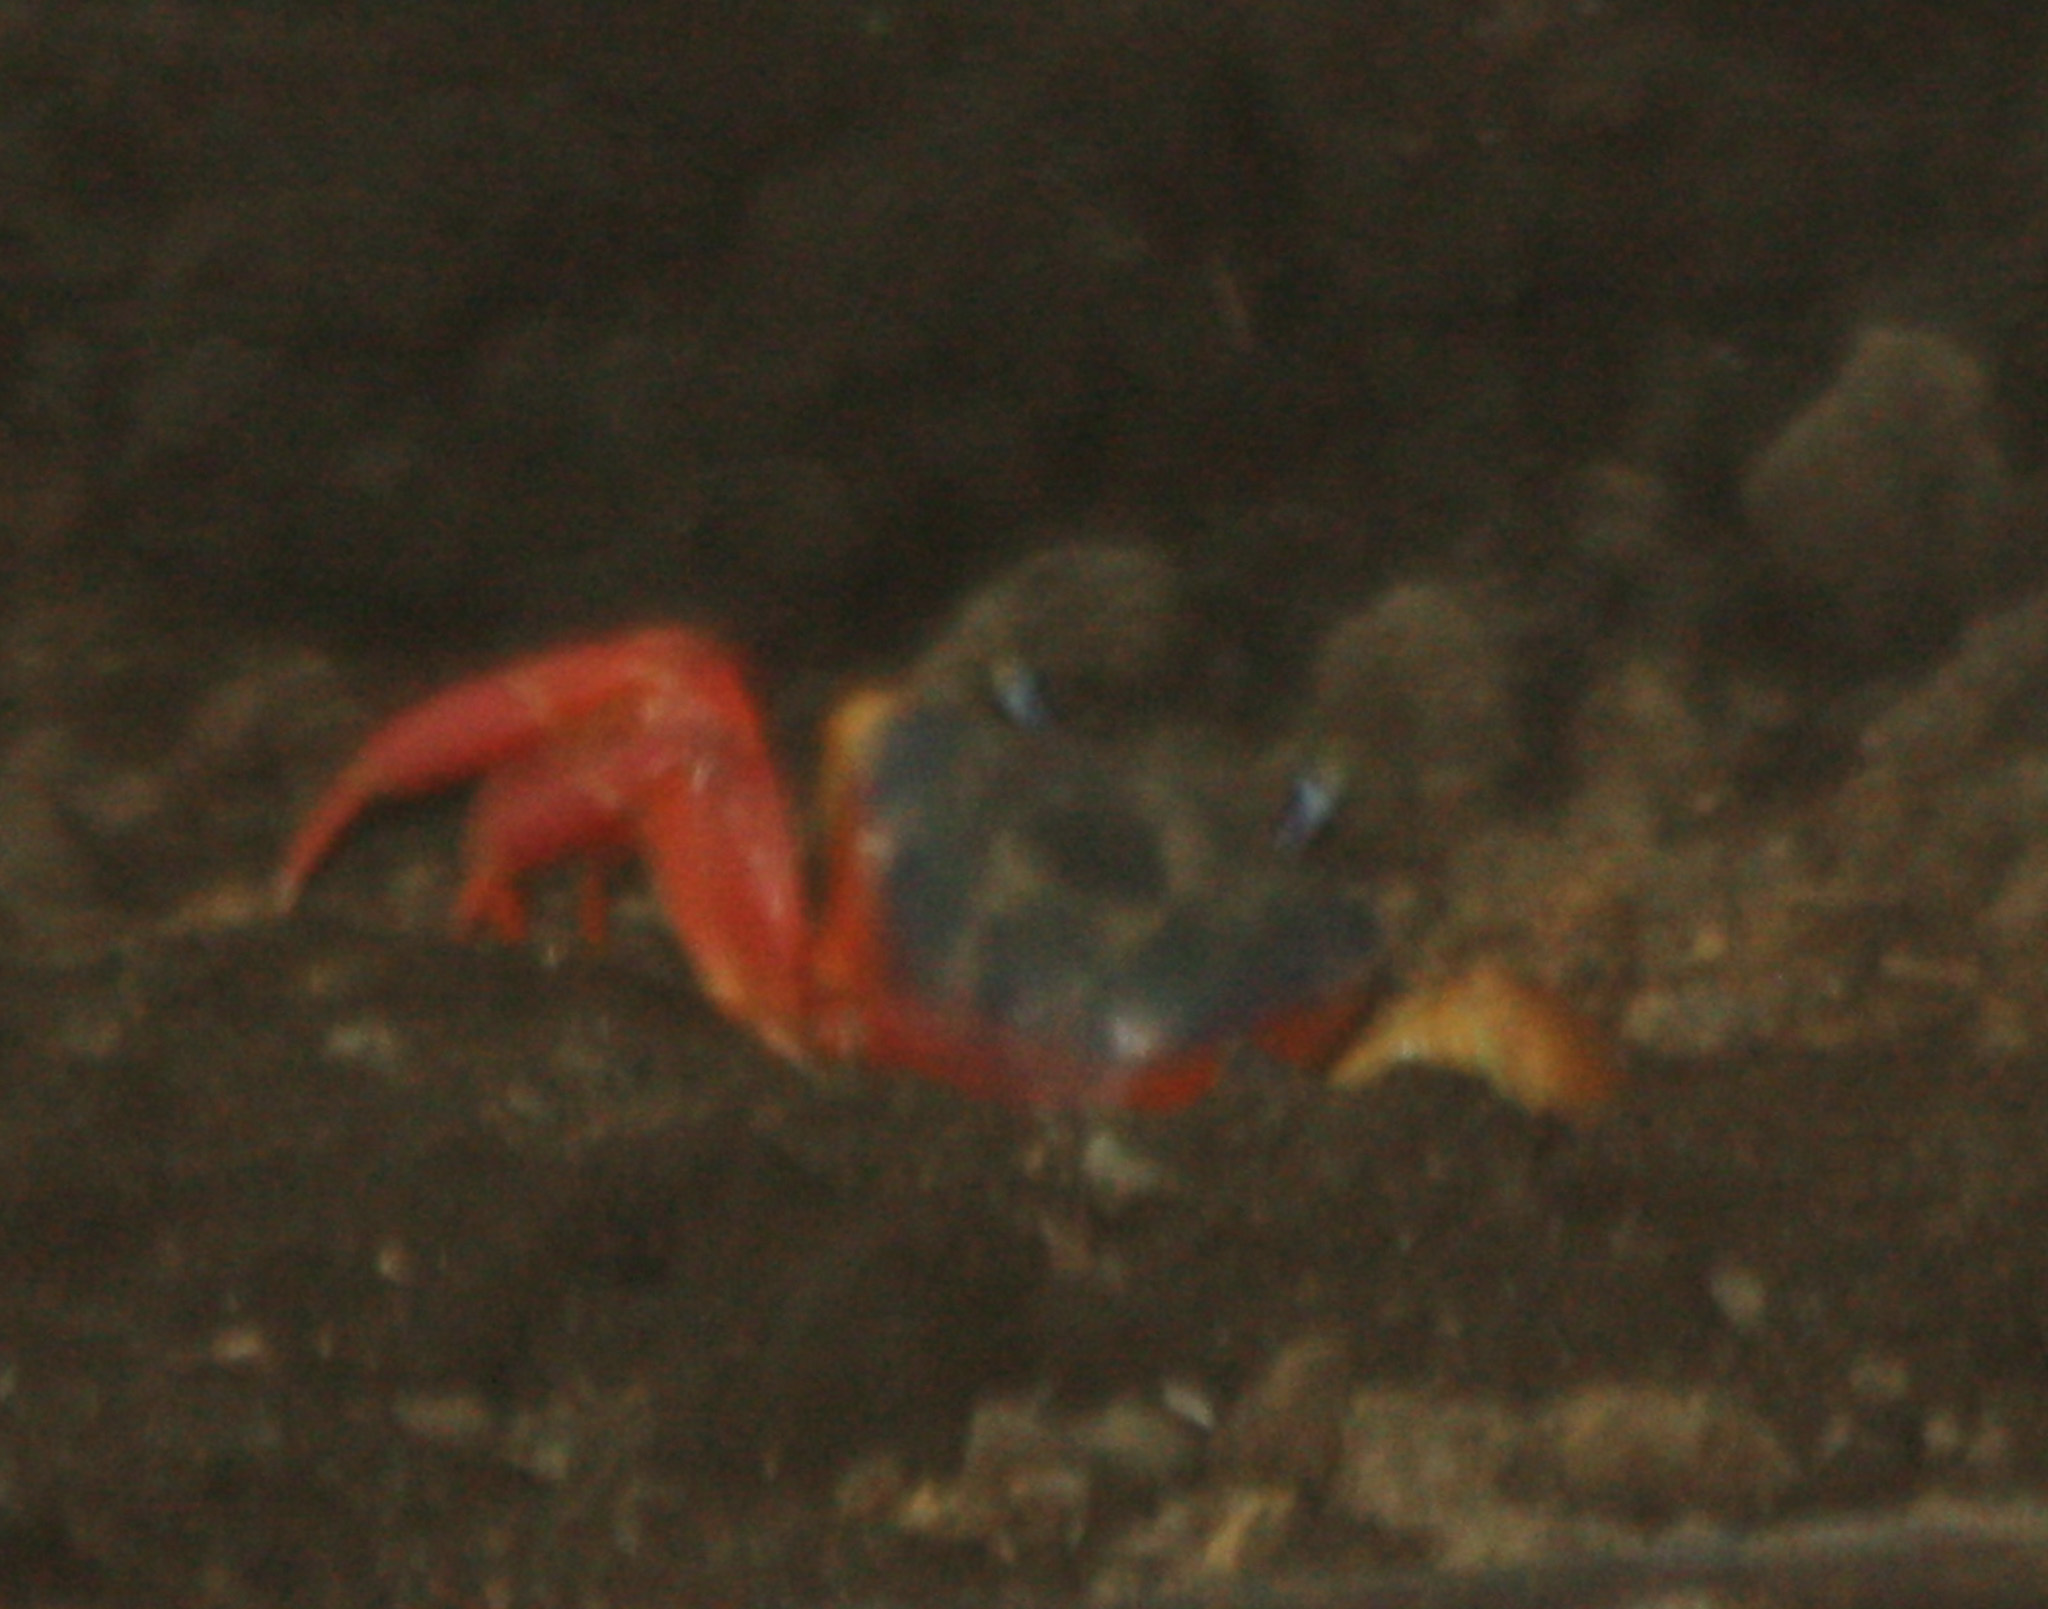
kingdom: Animalia
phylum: Arthropoda
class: Malacostraca
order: Decapoda
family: Gecarcinidae
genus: Cardisoma
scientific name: Cardisoma crassum
